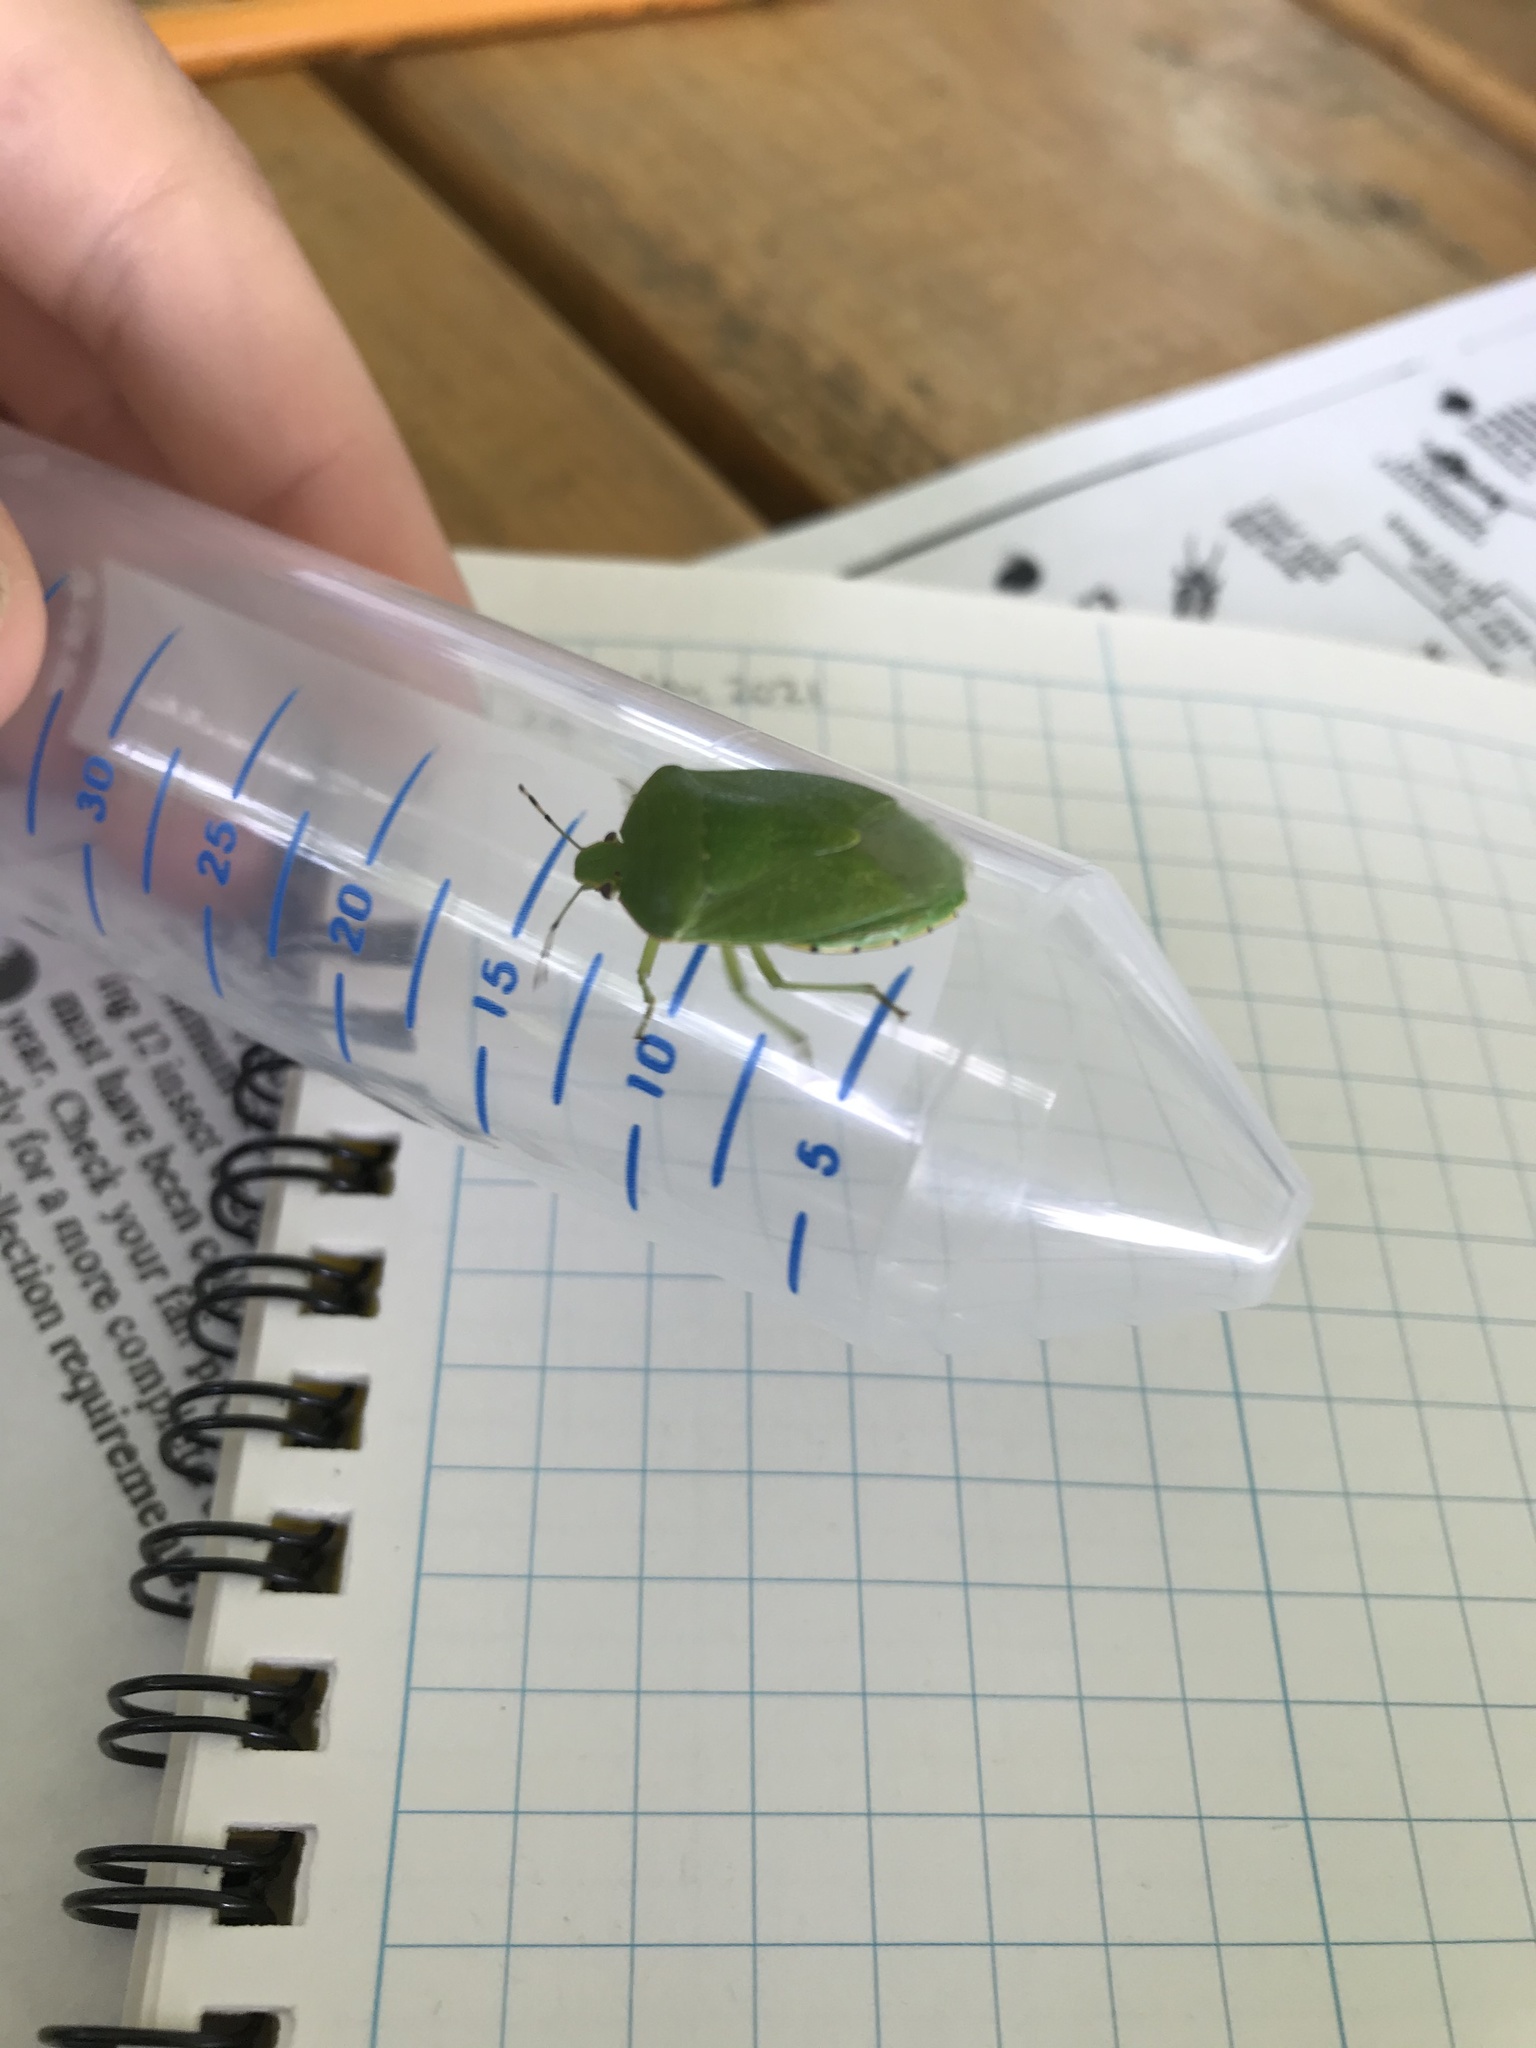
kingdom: Animalia
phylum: Arthropoda
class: Insecta
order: Hemiptera
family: Pentatomidae
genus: Chinavia
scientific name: Chinavia hilaris
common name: Green stink bug
